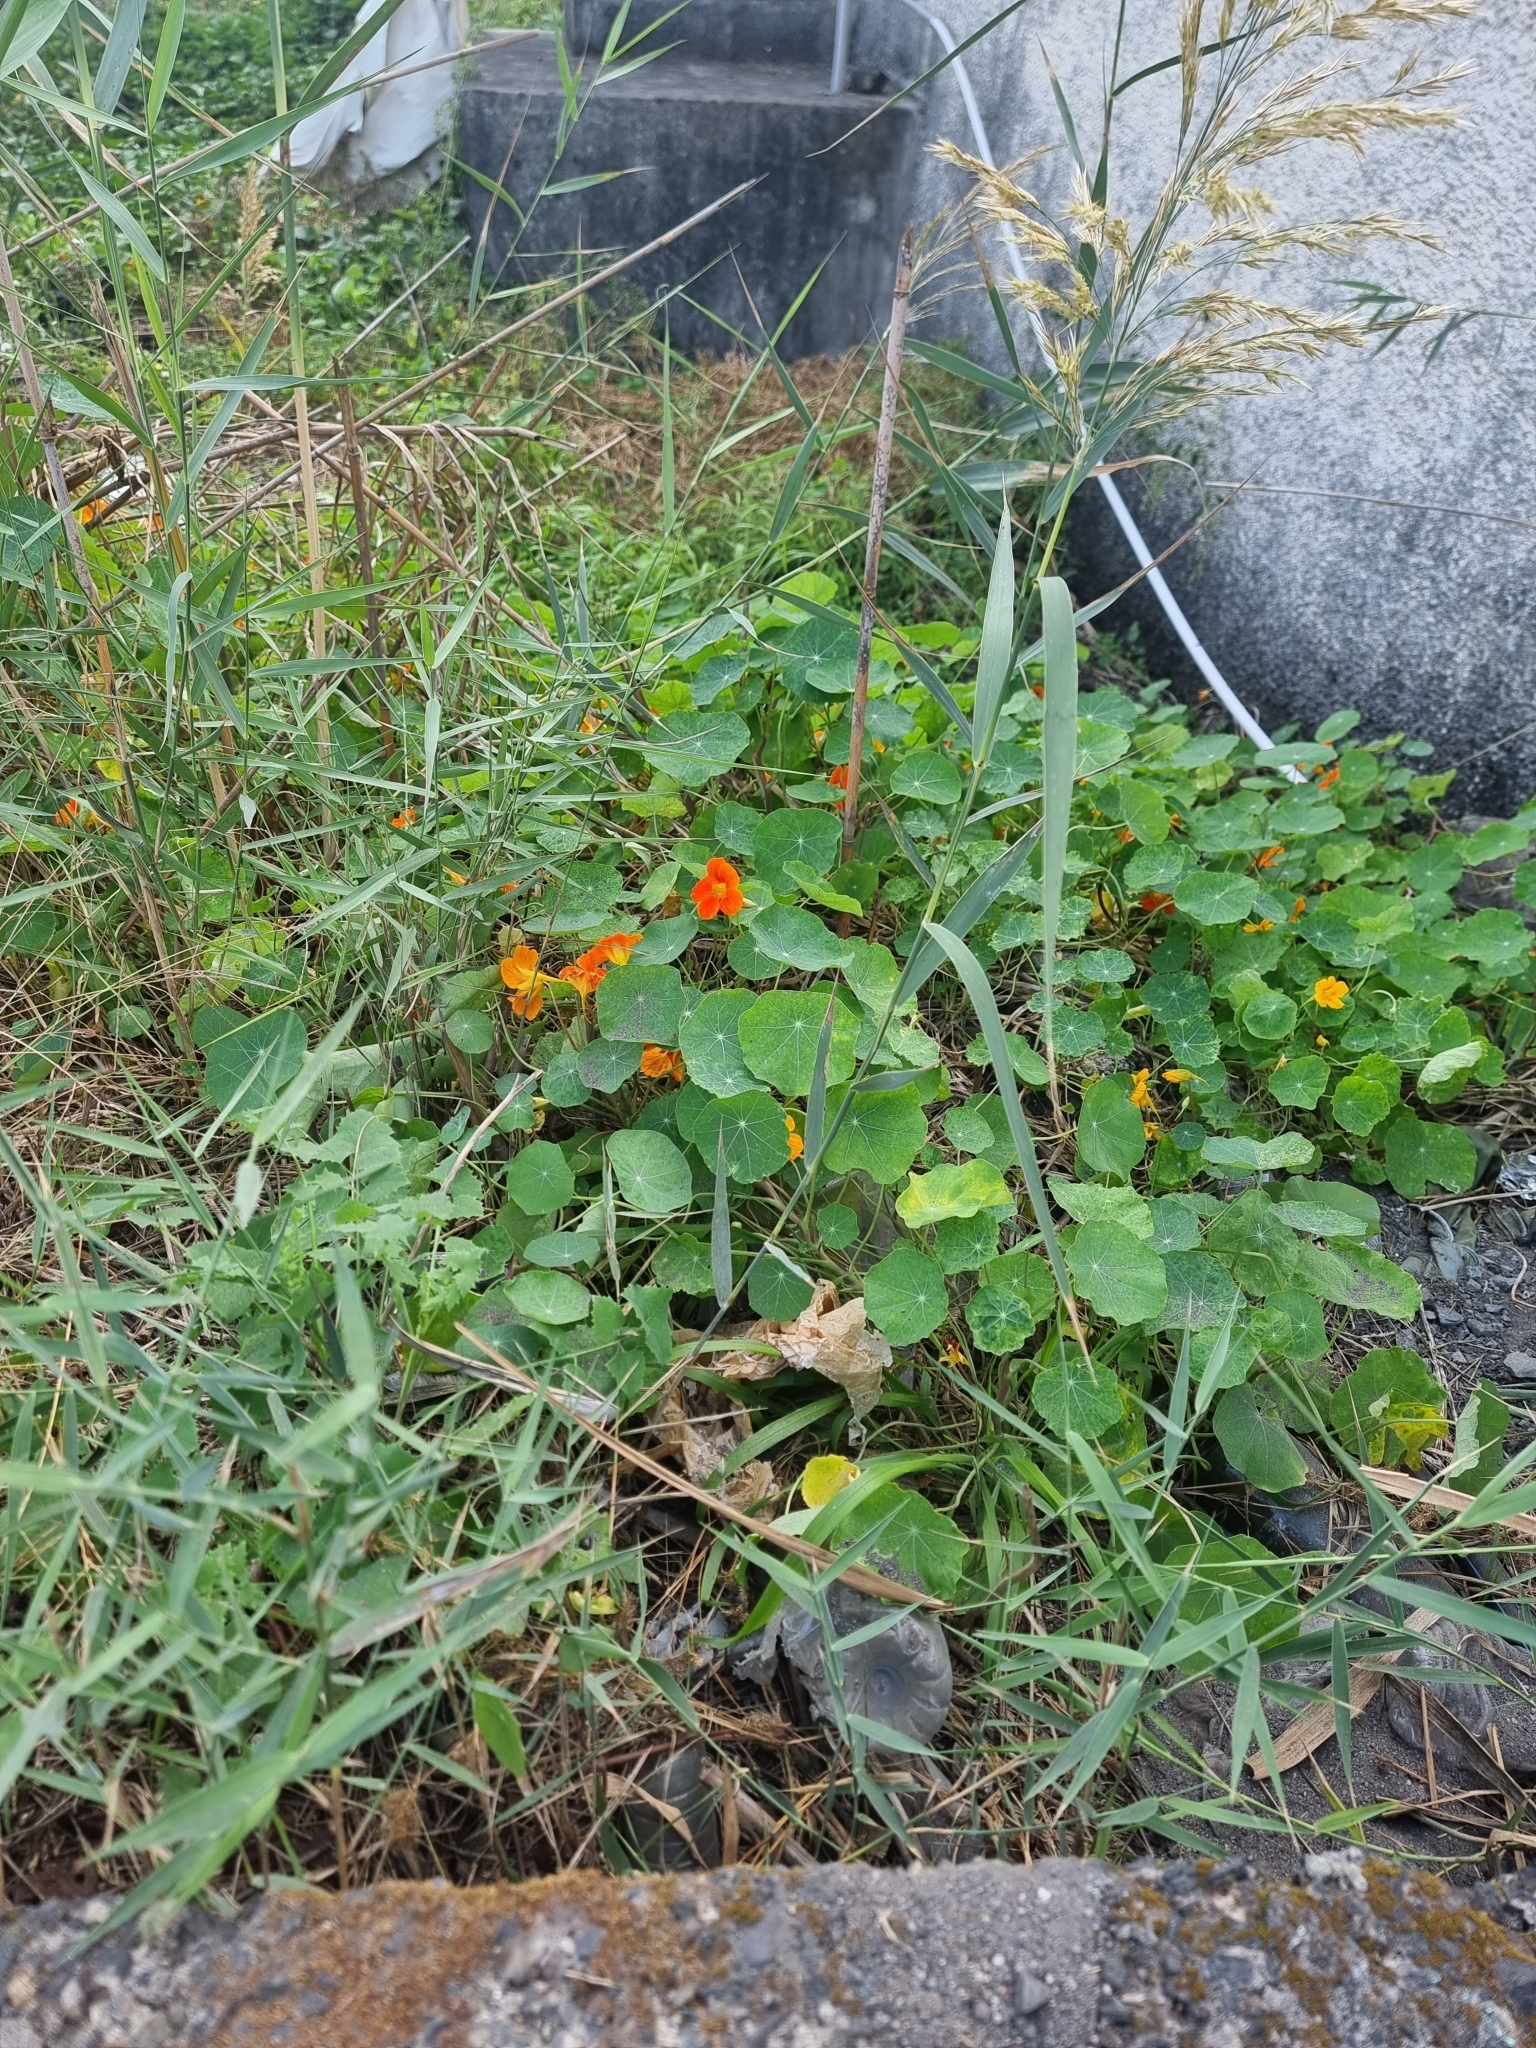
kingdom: Plantae
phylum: Tracheophyta
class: Magnoliopsida
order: Brassicales
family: Tropaeolaceae
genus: Tropaeolum
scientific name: Tropaeolum majus
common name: Nasturtium
